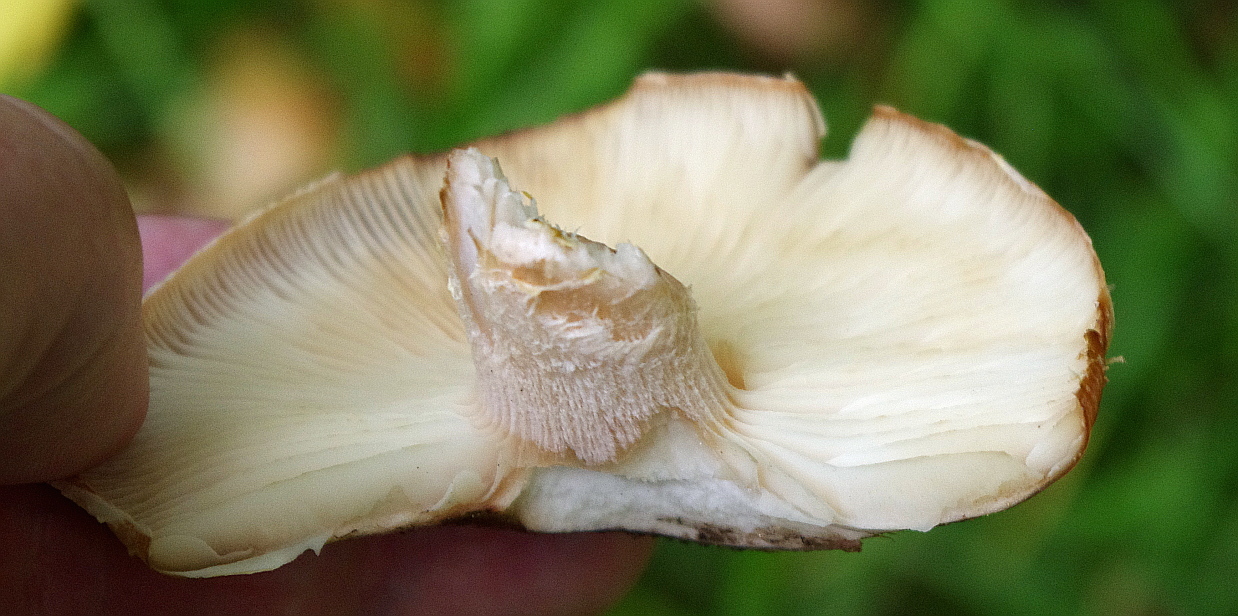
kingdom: Fungi
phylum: Basidiomycota
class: Agaricomycetes
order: Agaricales
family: Physalacriaceae
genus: Armillaria
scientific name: Armillaria borealis
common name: Northern honey fungus
